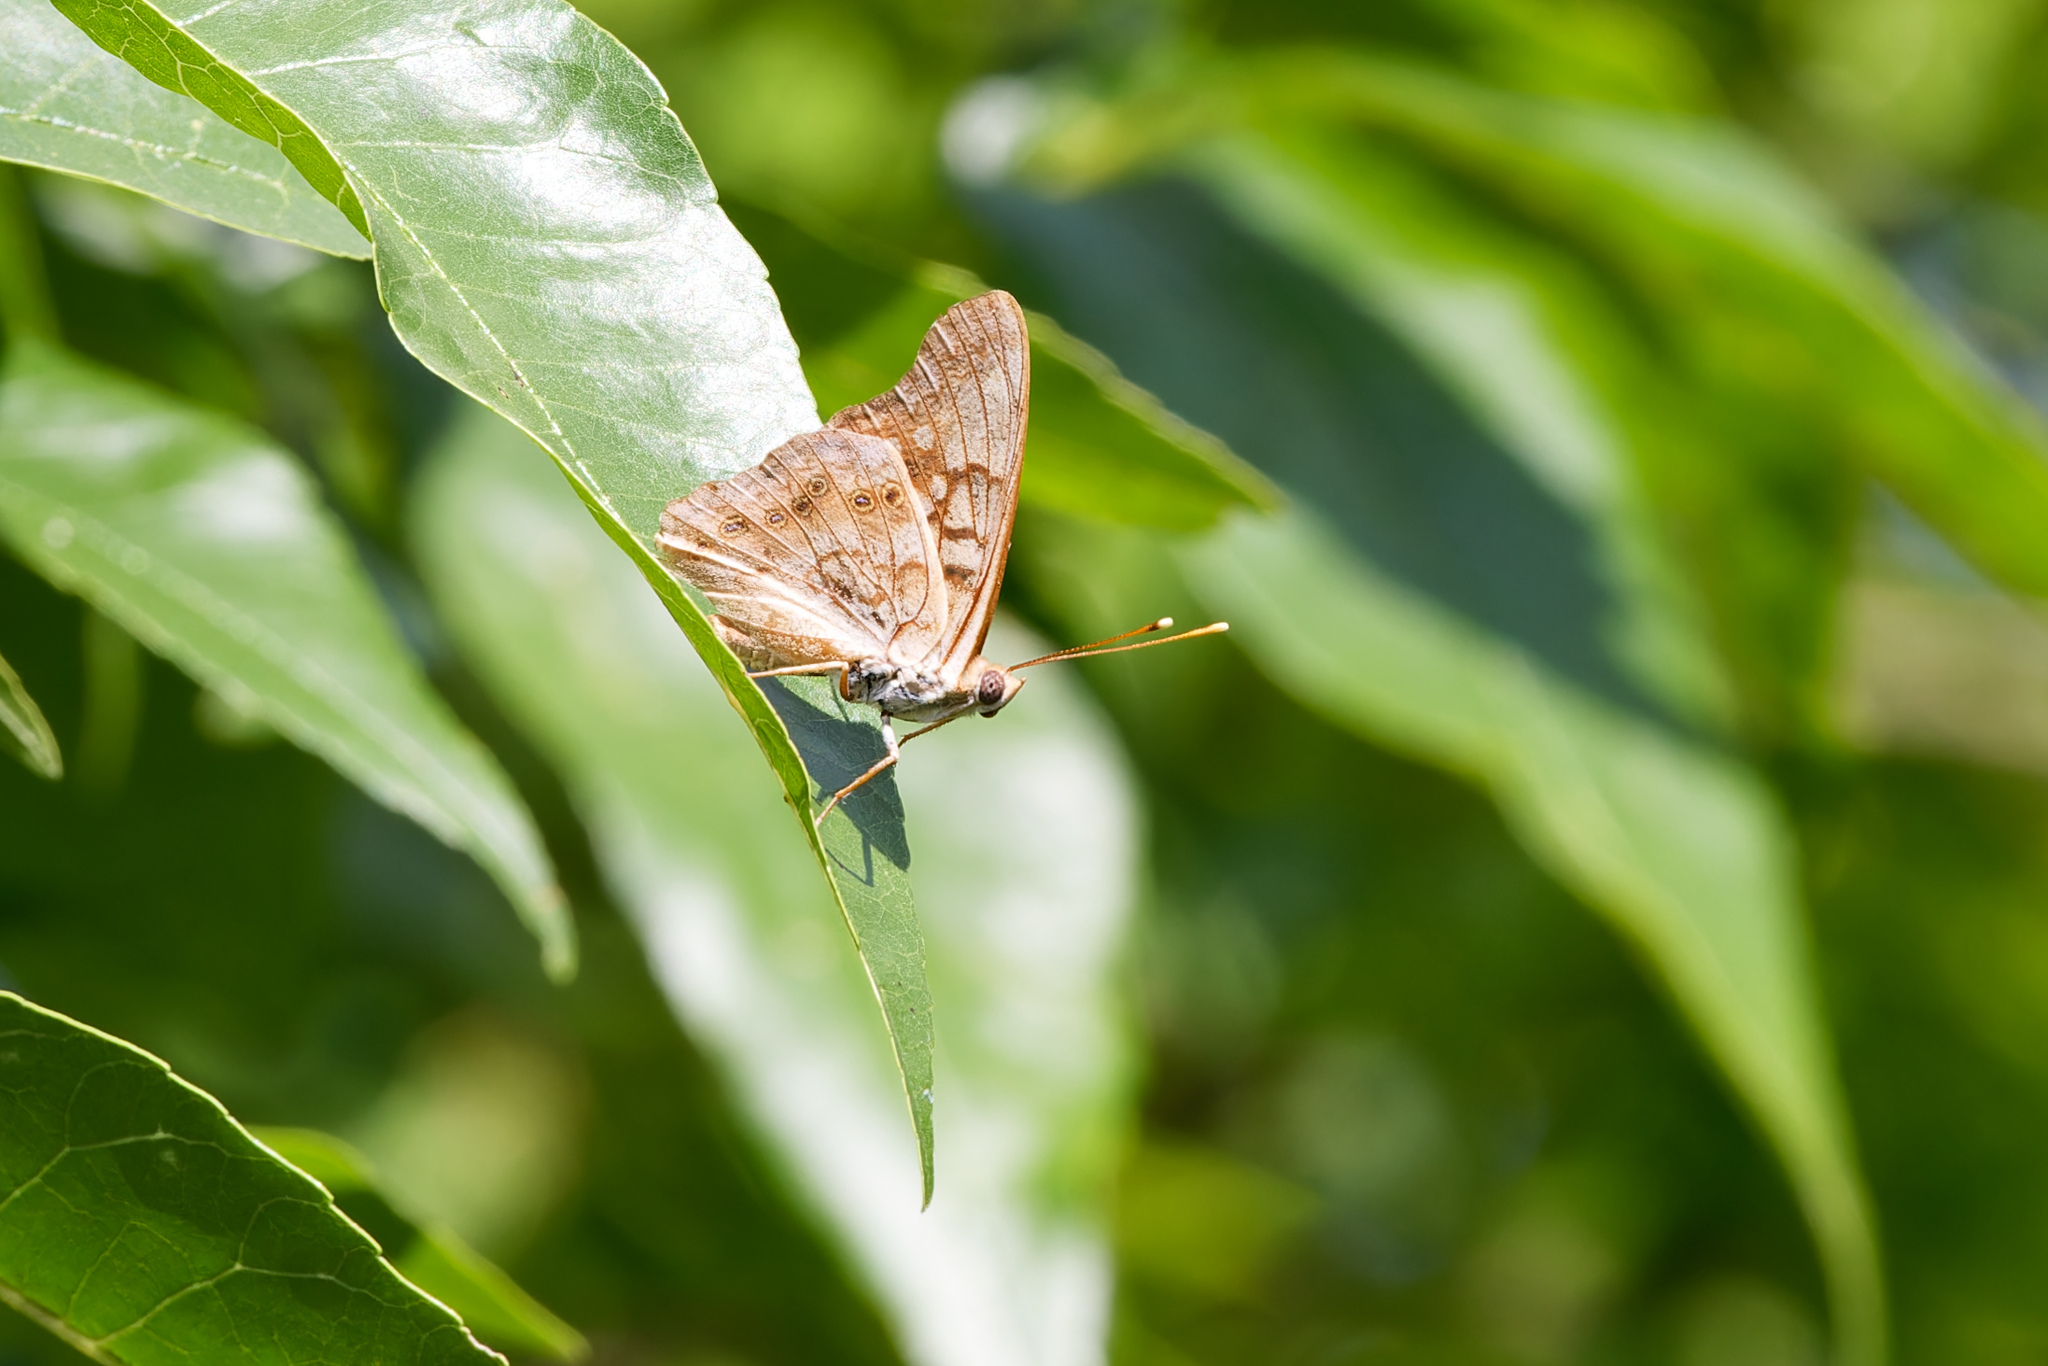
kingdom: Animalia
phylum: Arthropoda
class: Insecta
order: Lepidoptera
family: Nymphalidae
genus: Asterocampa
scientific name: Asterocampa clyton
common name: Tawny emperor
